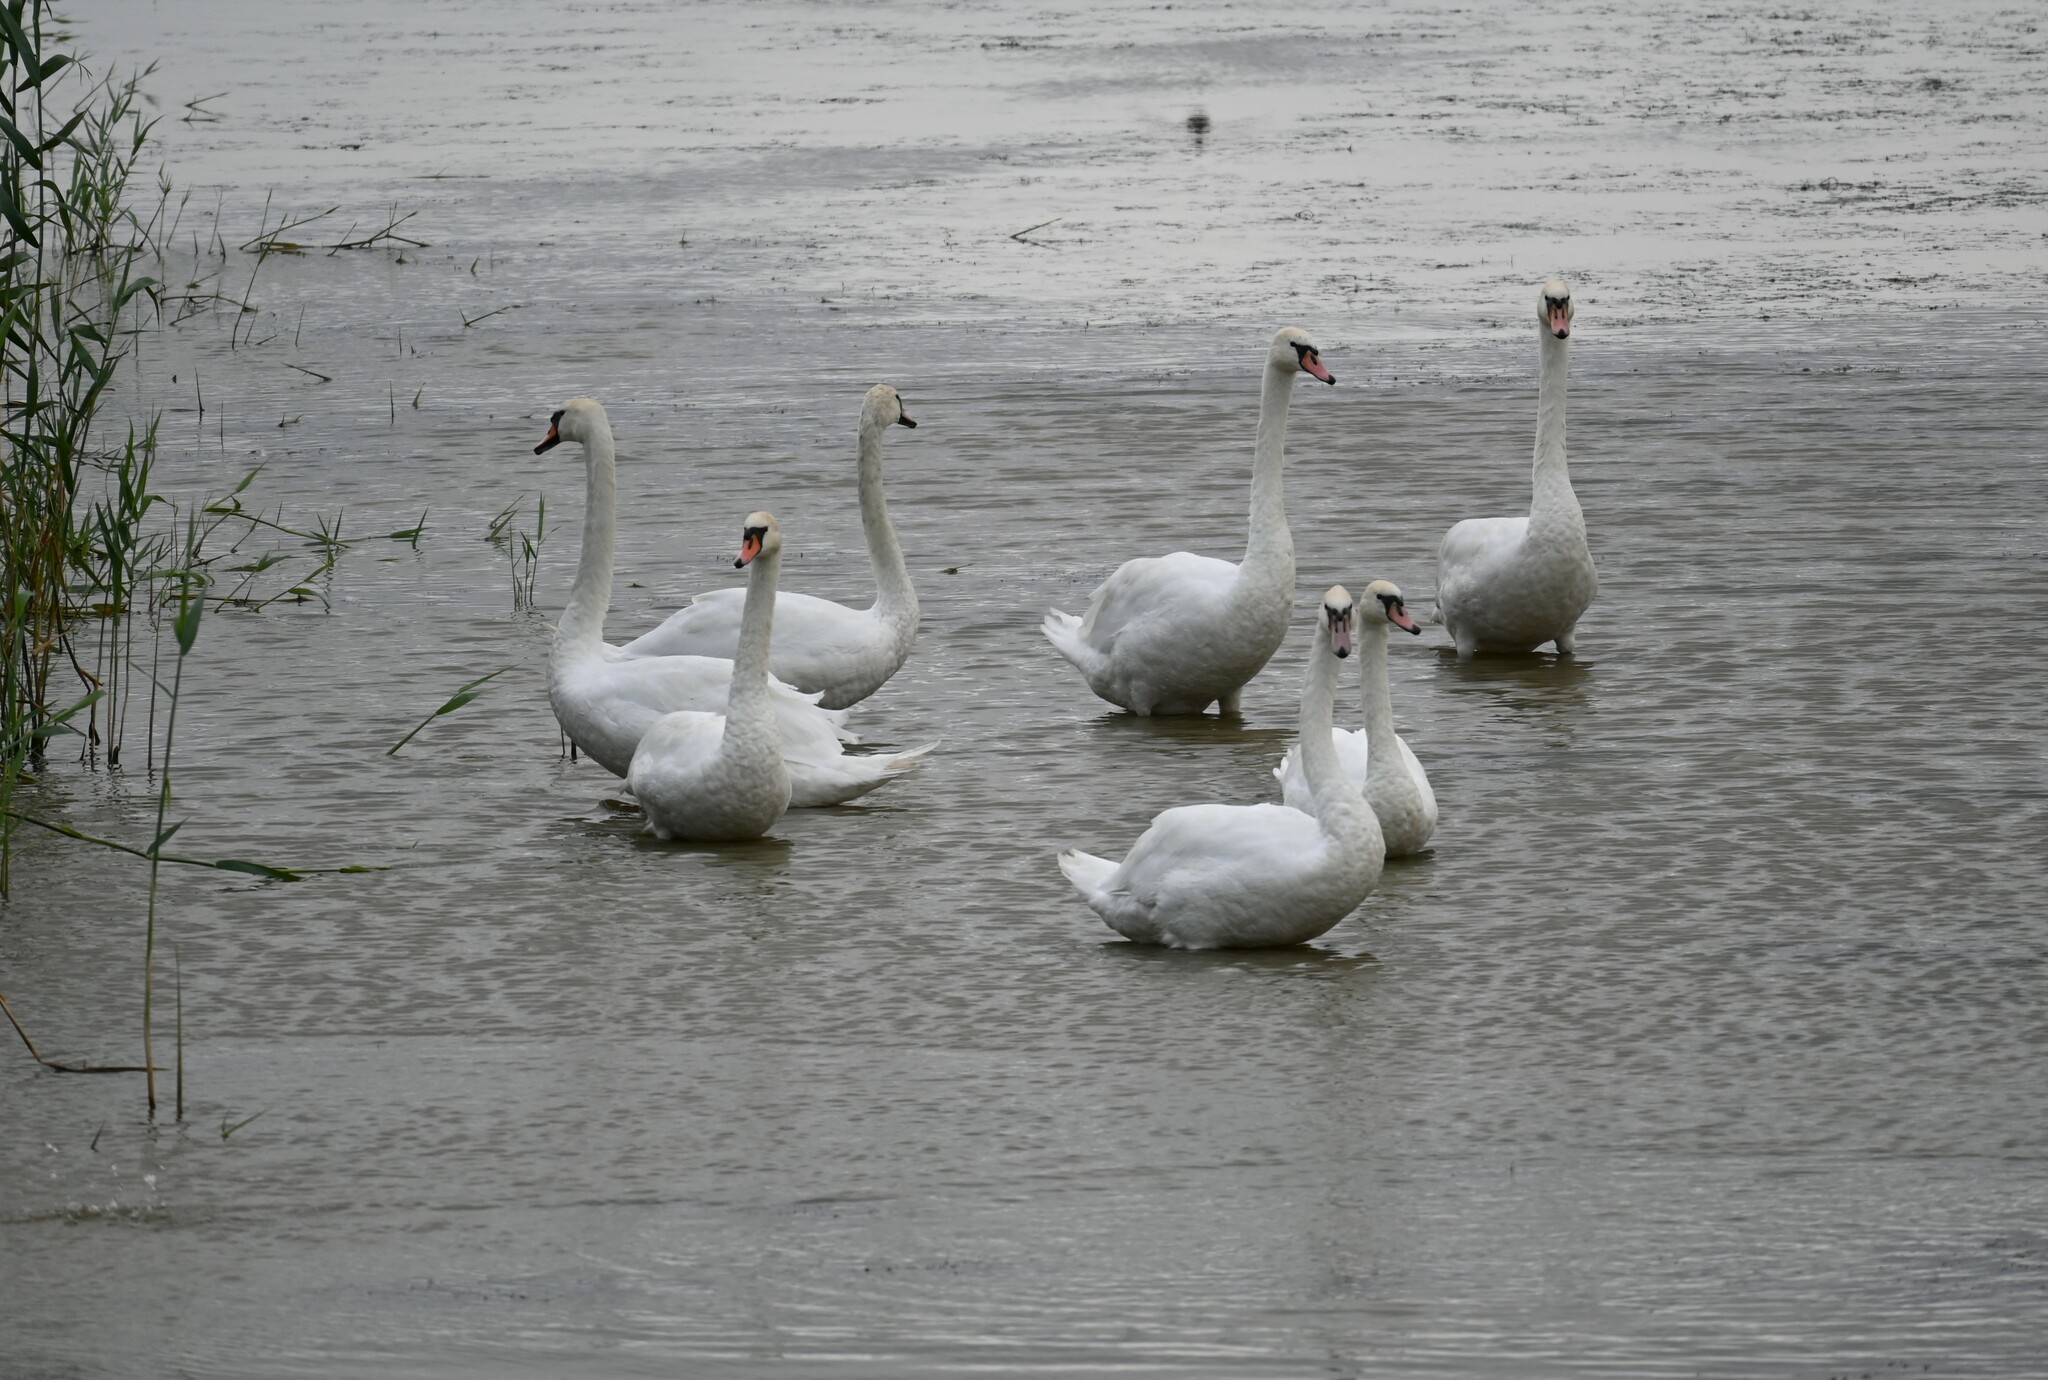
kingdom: Animalia
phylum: Chordata
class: Aves
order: Anseriformes
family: Anatidae
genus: Cygnus
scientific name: Cygnus olor
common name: Mute swan
